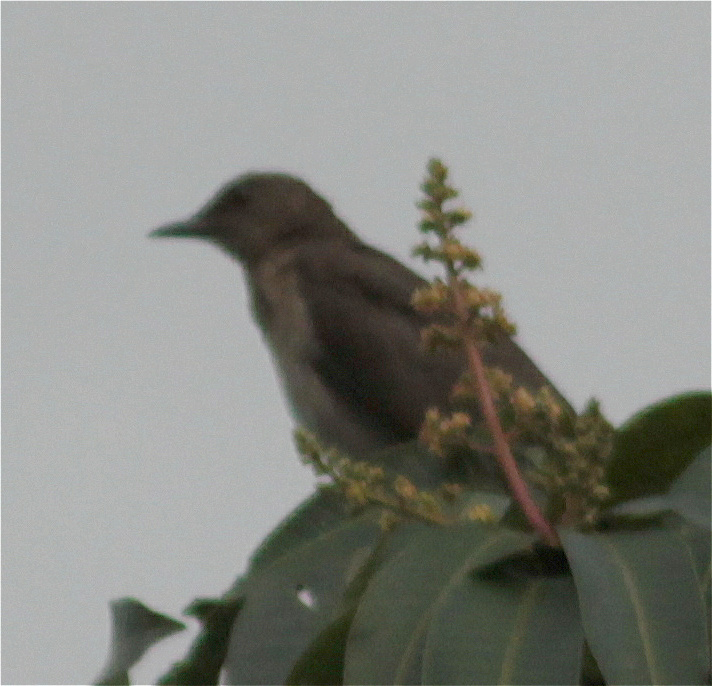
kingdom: Animalia
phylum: Chordata
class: Aves
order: Passeriformes
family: Turdidae
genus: Turdus
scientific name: Turdus ignobilis
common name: Black-billed thrush
